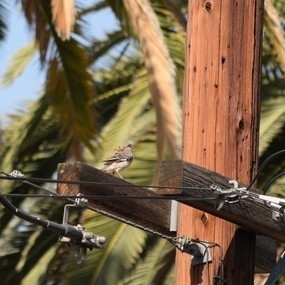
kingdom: Animalia
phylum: Chordata
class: Aves
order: Passeriformes
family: Mimidae
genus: Mimus
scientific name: Mimus polyglottos
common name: Northern mockingbird
